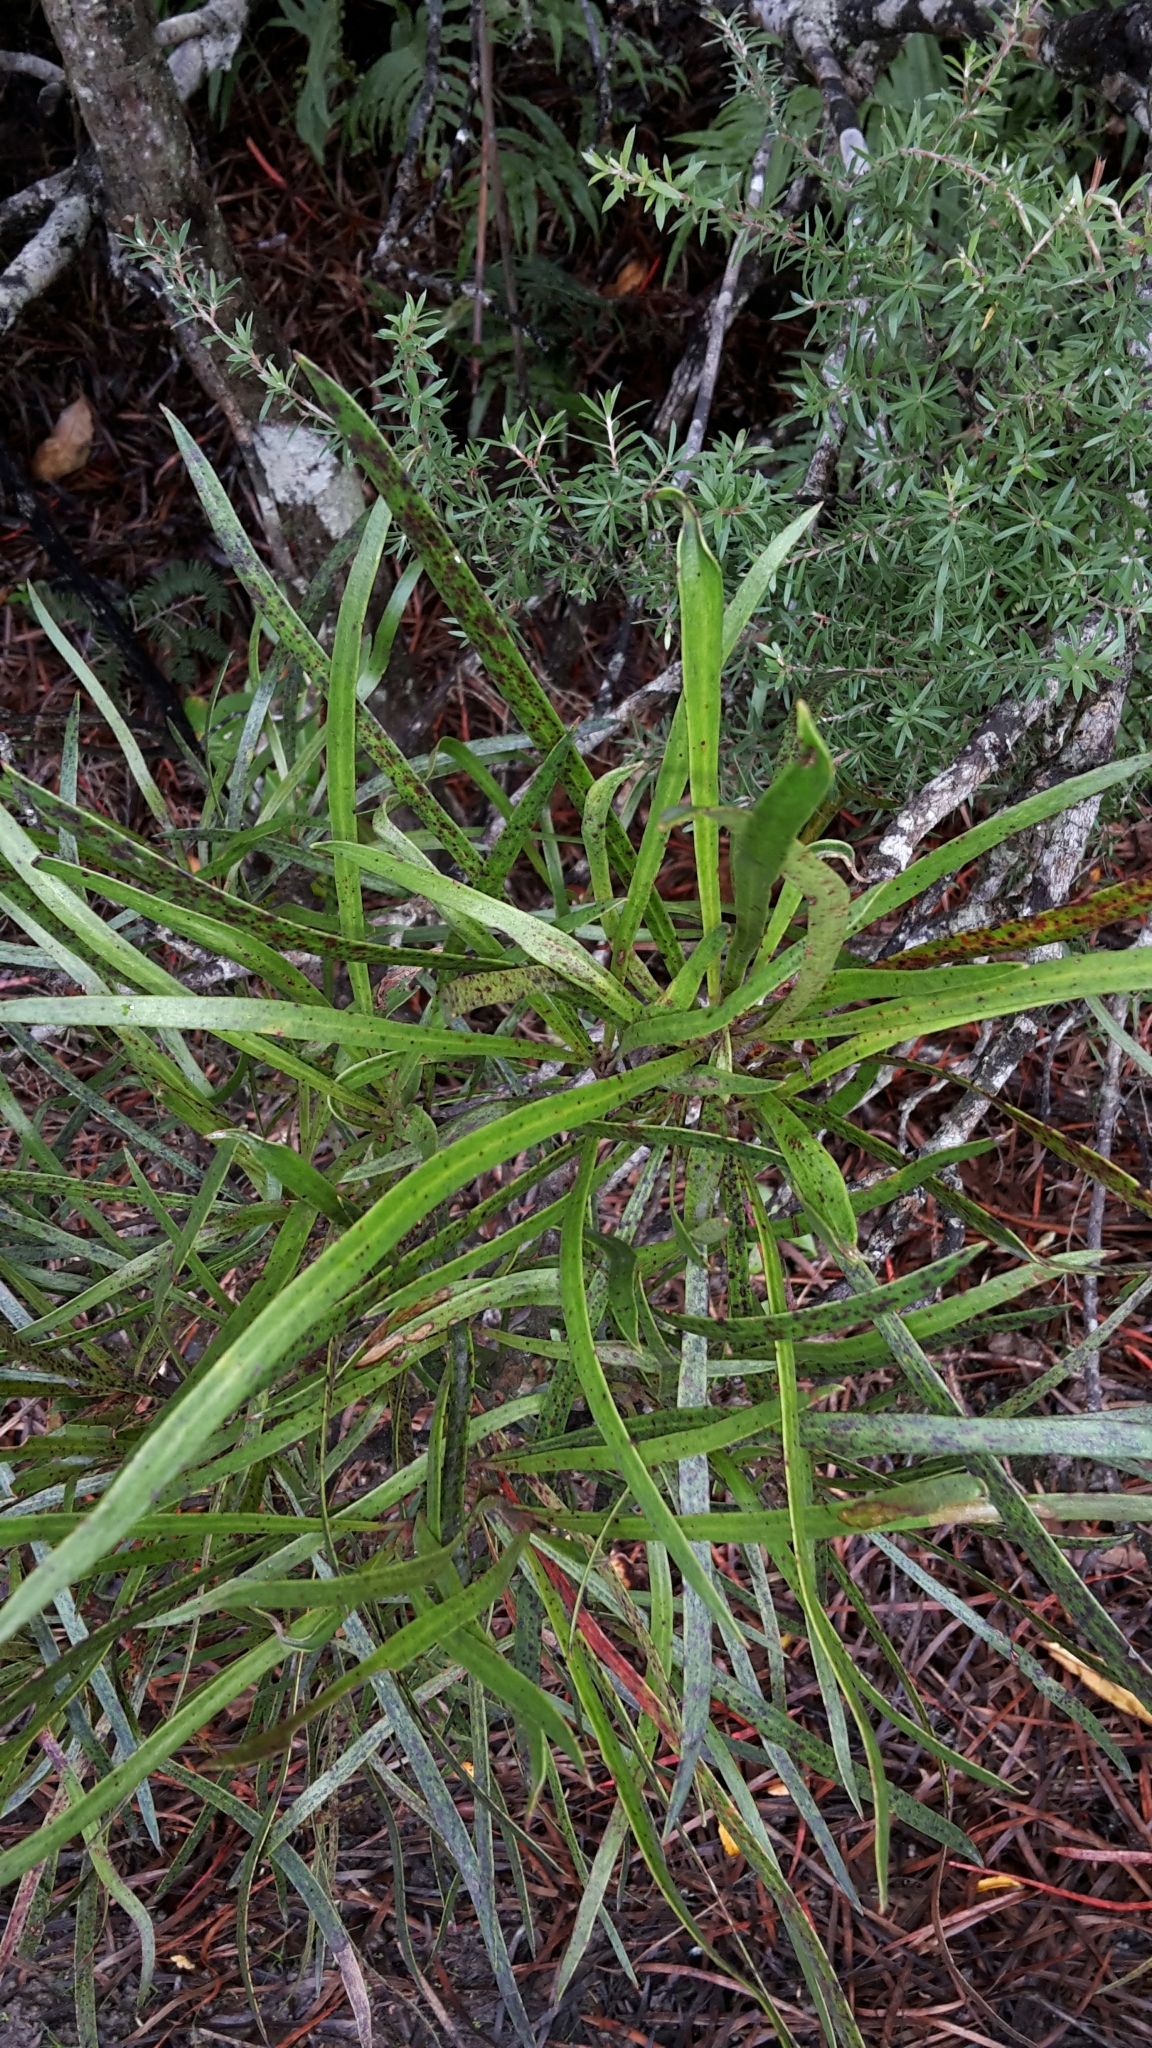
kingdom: Plantae
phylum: Tracheophyta
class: Magnoliopsida
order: Proteales
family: Proteaceae
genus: Toronia
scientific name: Toronia toru
